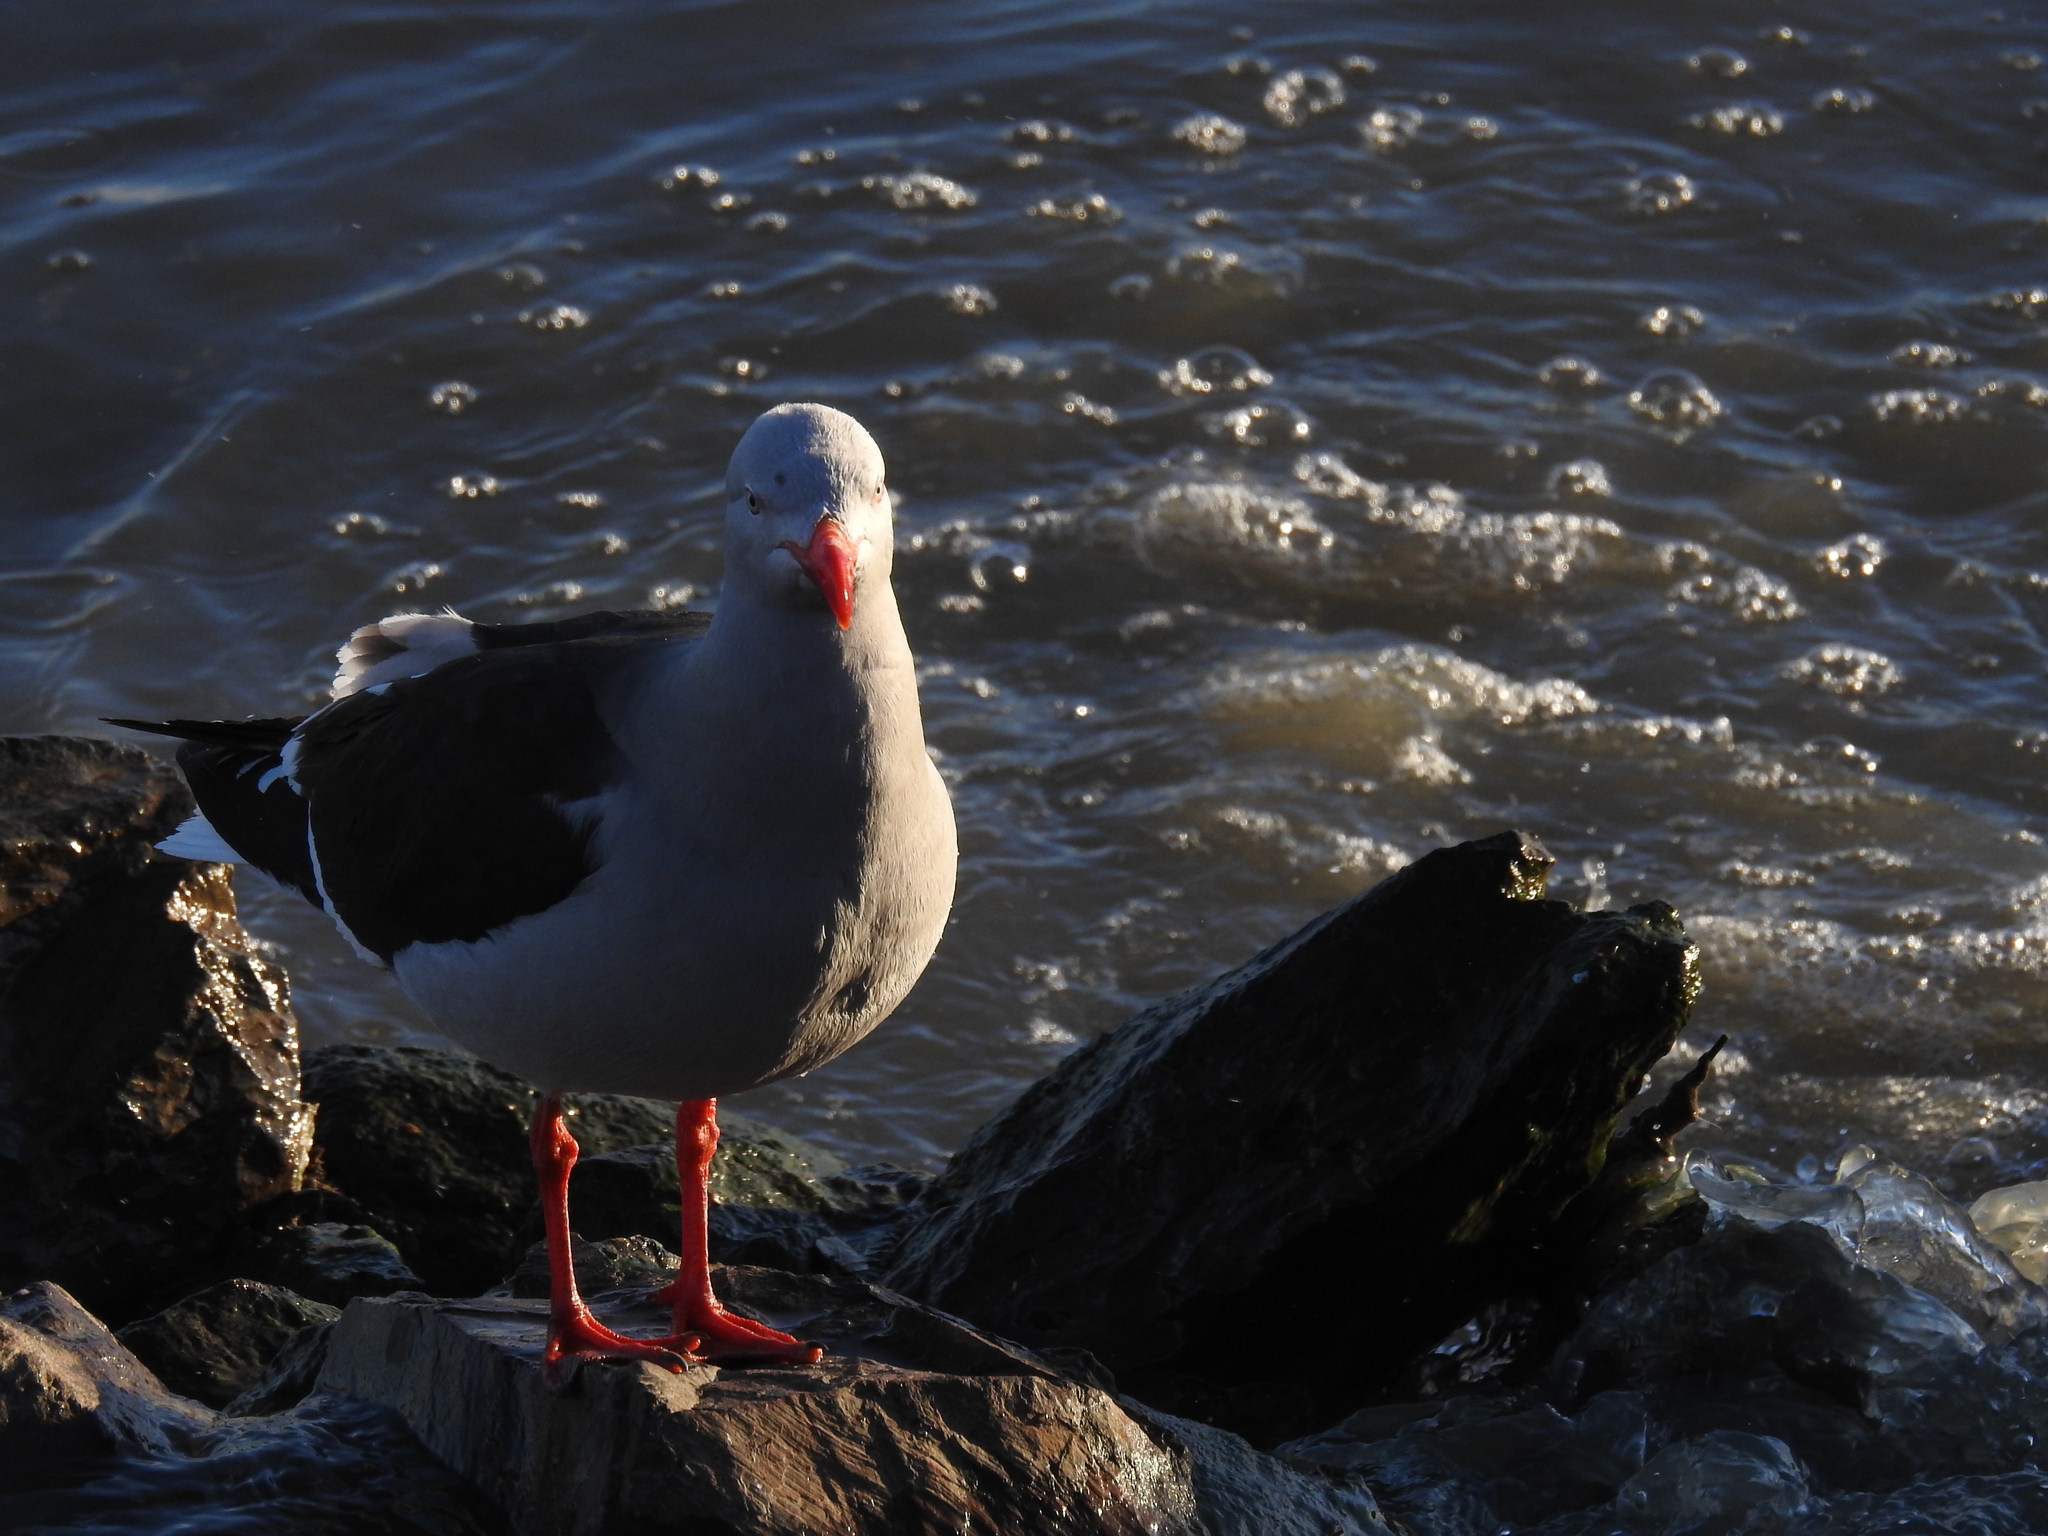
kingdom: Animalia
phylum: Chordata
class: Aves
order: Charadriiformes
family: Laridae
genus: Leucophaeus
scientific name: Leucophaeus scoresbii
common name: Dolphin gull
